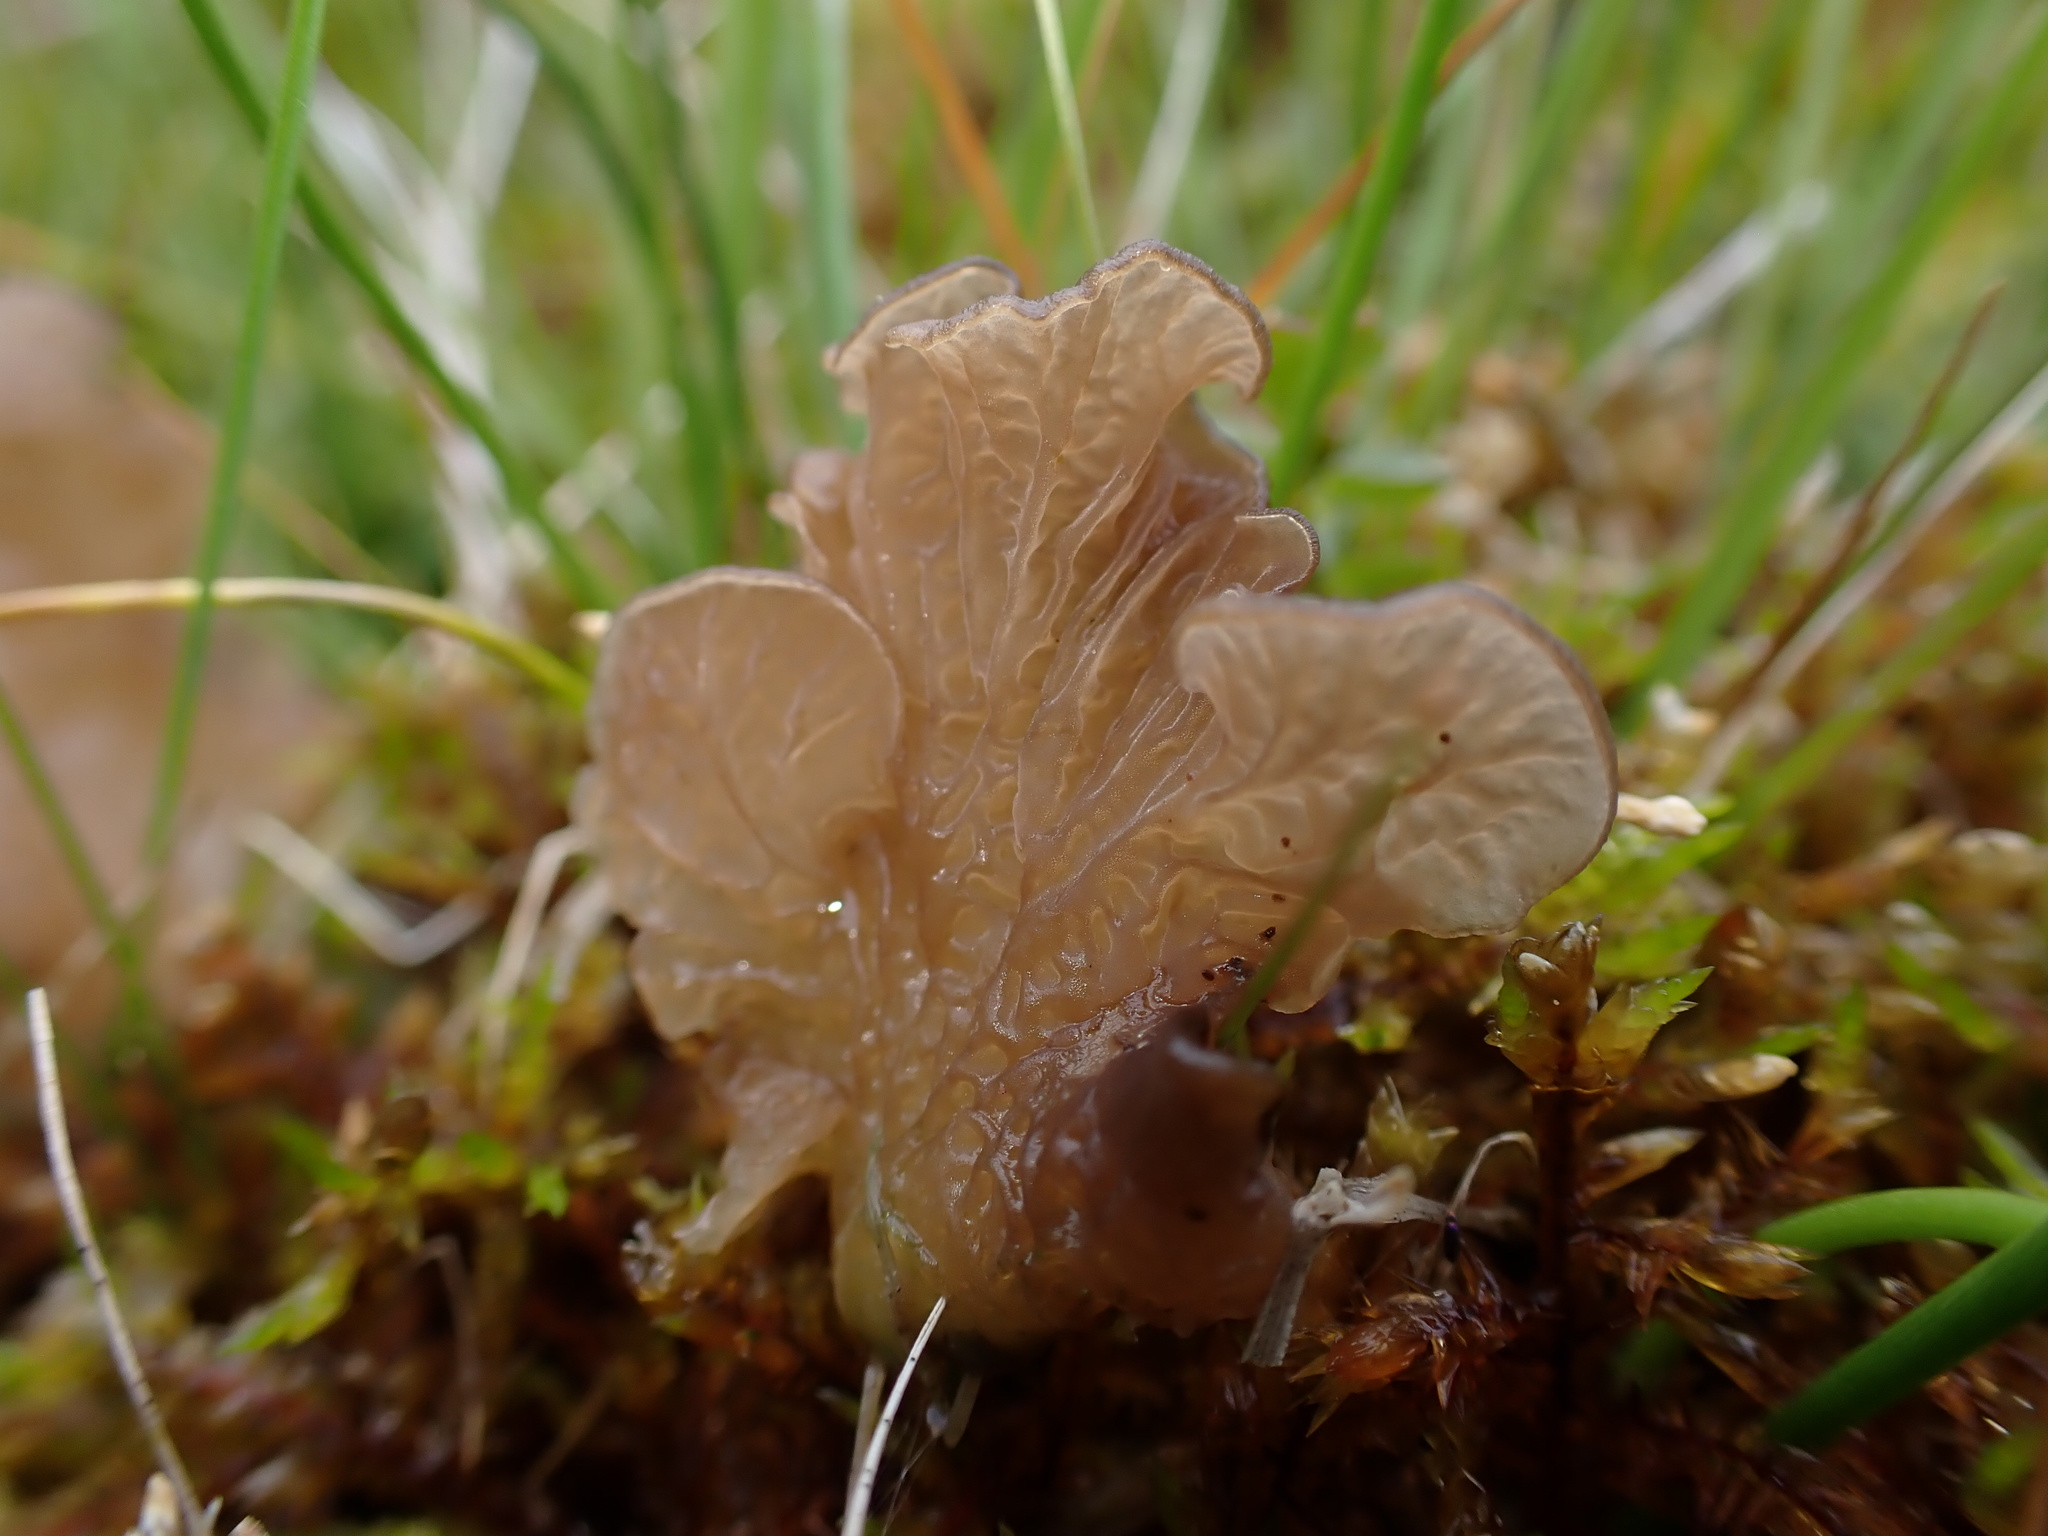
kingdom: Fungi
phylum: Basidiomycota
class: Agaricomycetes
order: Agaricales
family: Hygrophoraceae
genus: Arrhenia
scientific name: Arrhenia lobata
